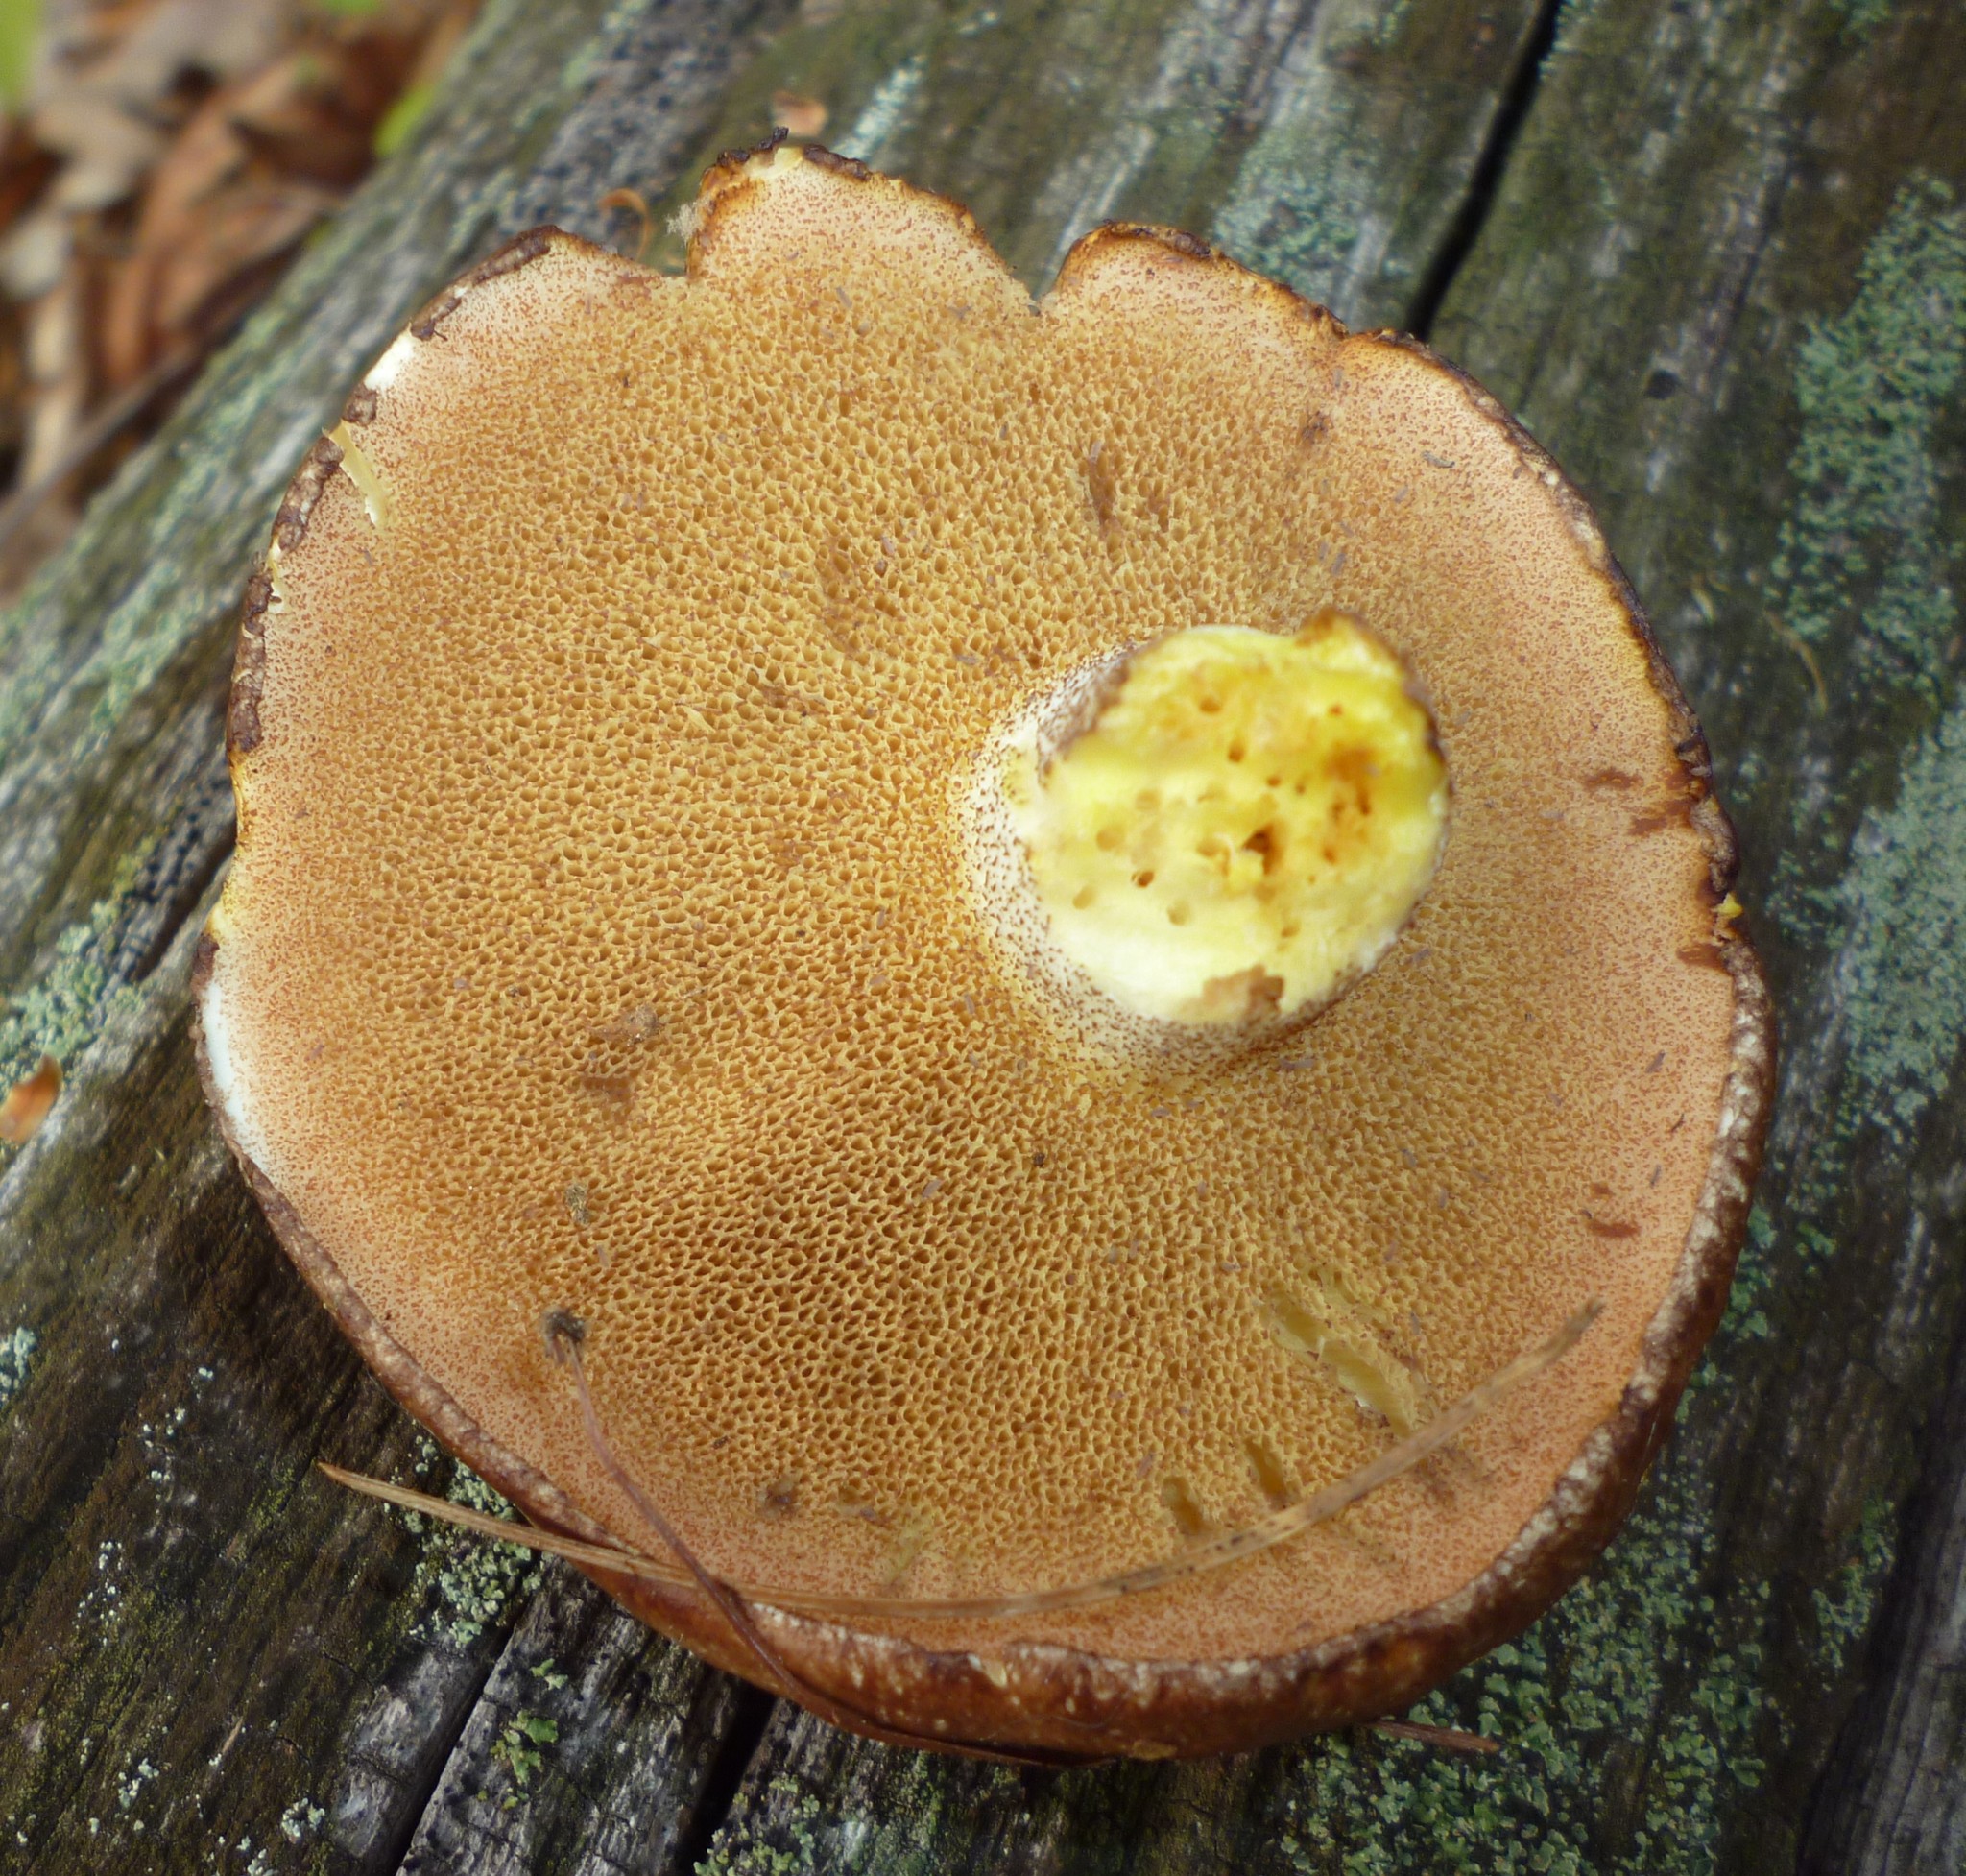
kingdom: Fungi
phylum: Basidiomycota
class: Agaricomycetes
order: Boletales
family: Suillaceae
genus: Suillus
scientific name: Suillus granulatus
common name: Weeping bolete
